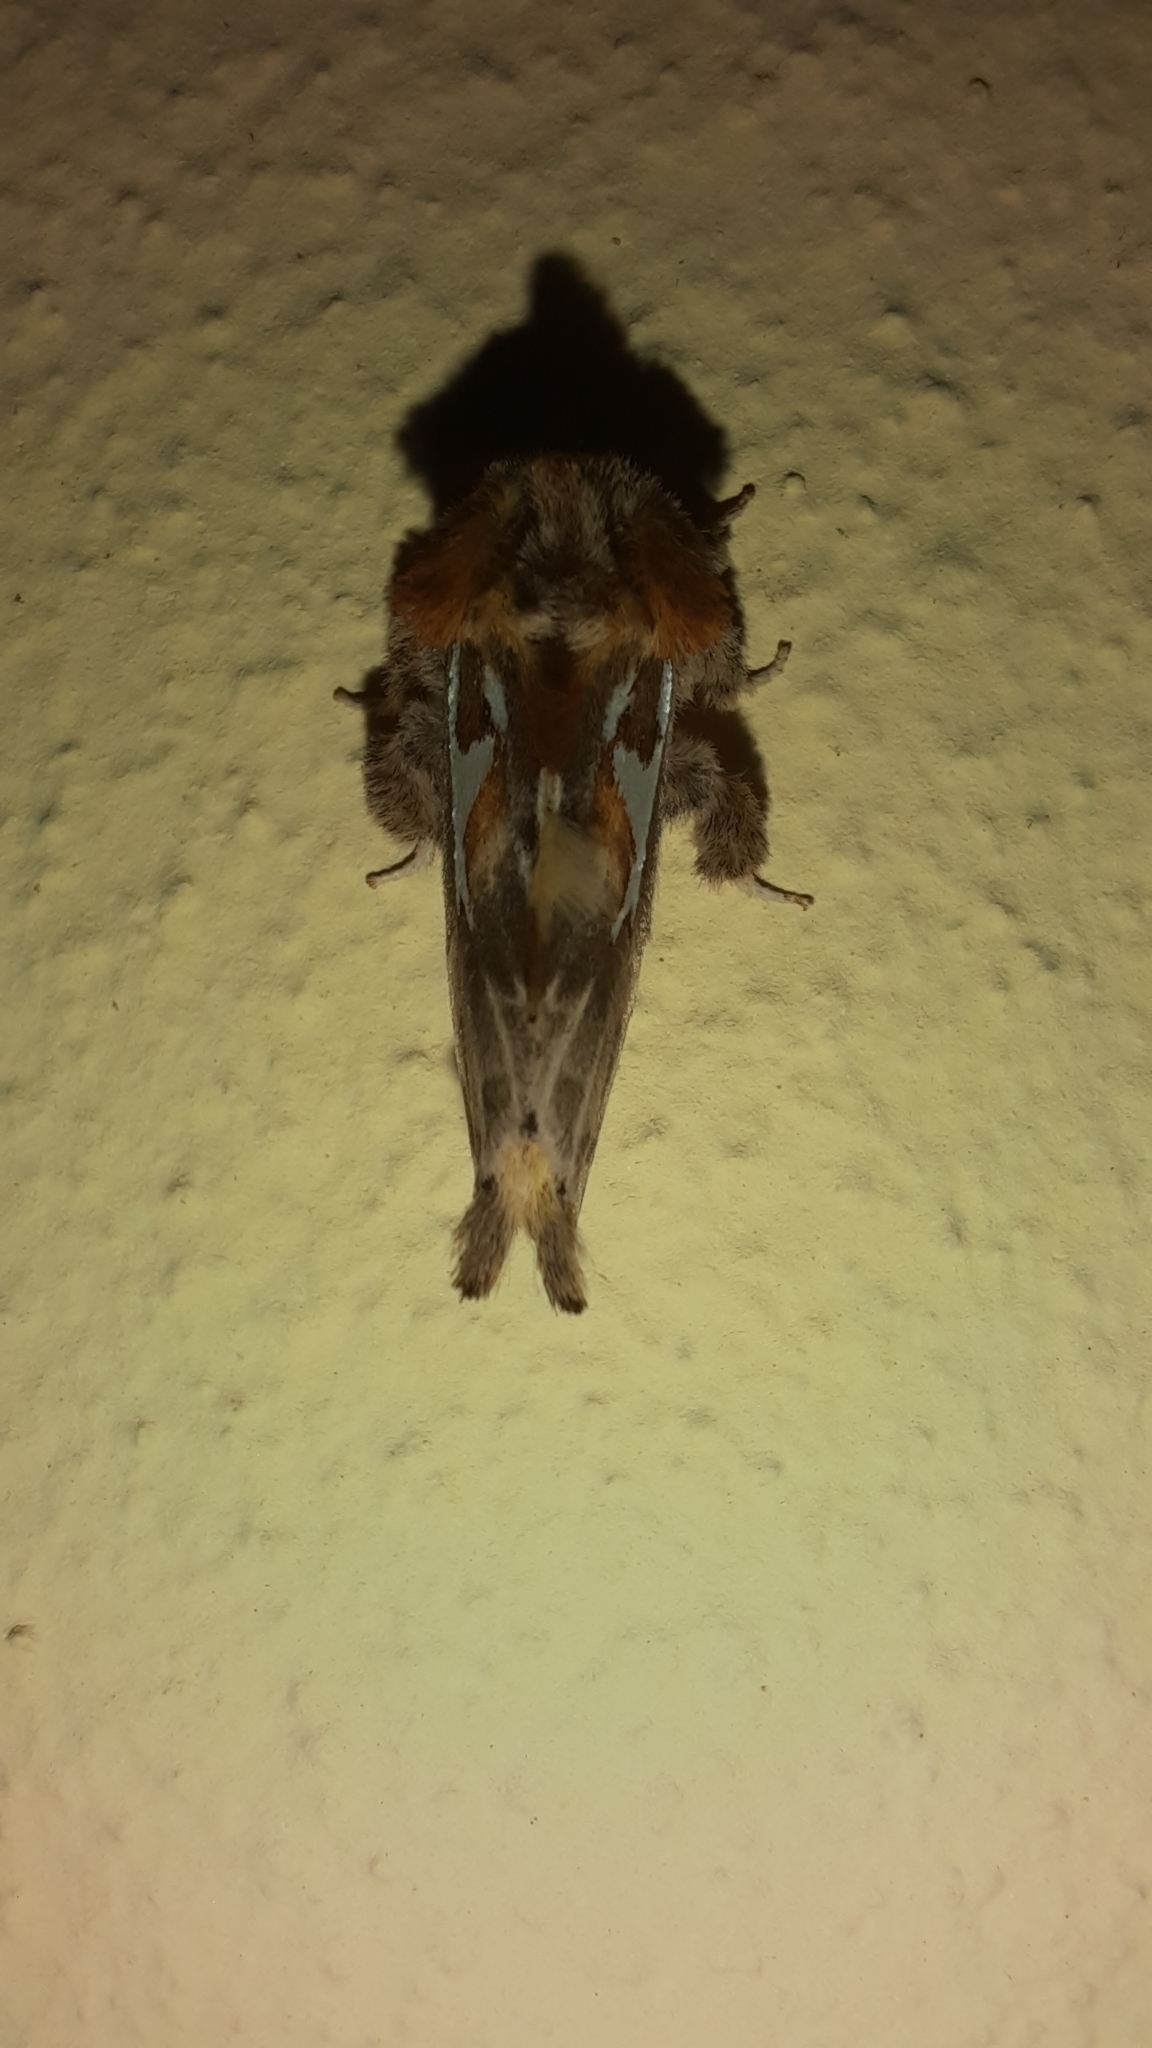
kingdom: Animalia
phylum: Arthropoda
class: Insecta
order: Lepidoptera
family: Notodontidae
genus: Spatalia
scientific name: Spatalia argentina
